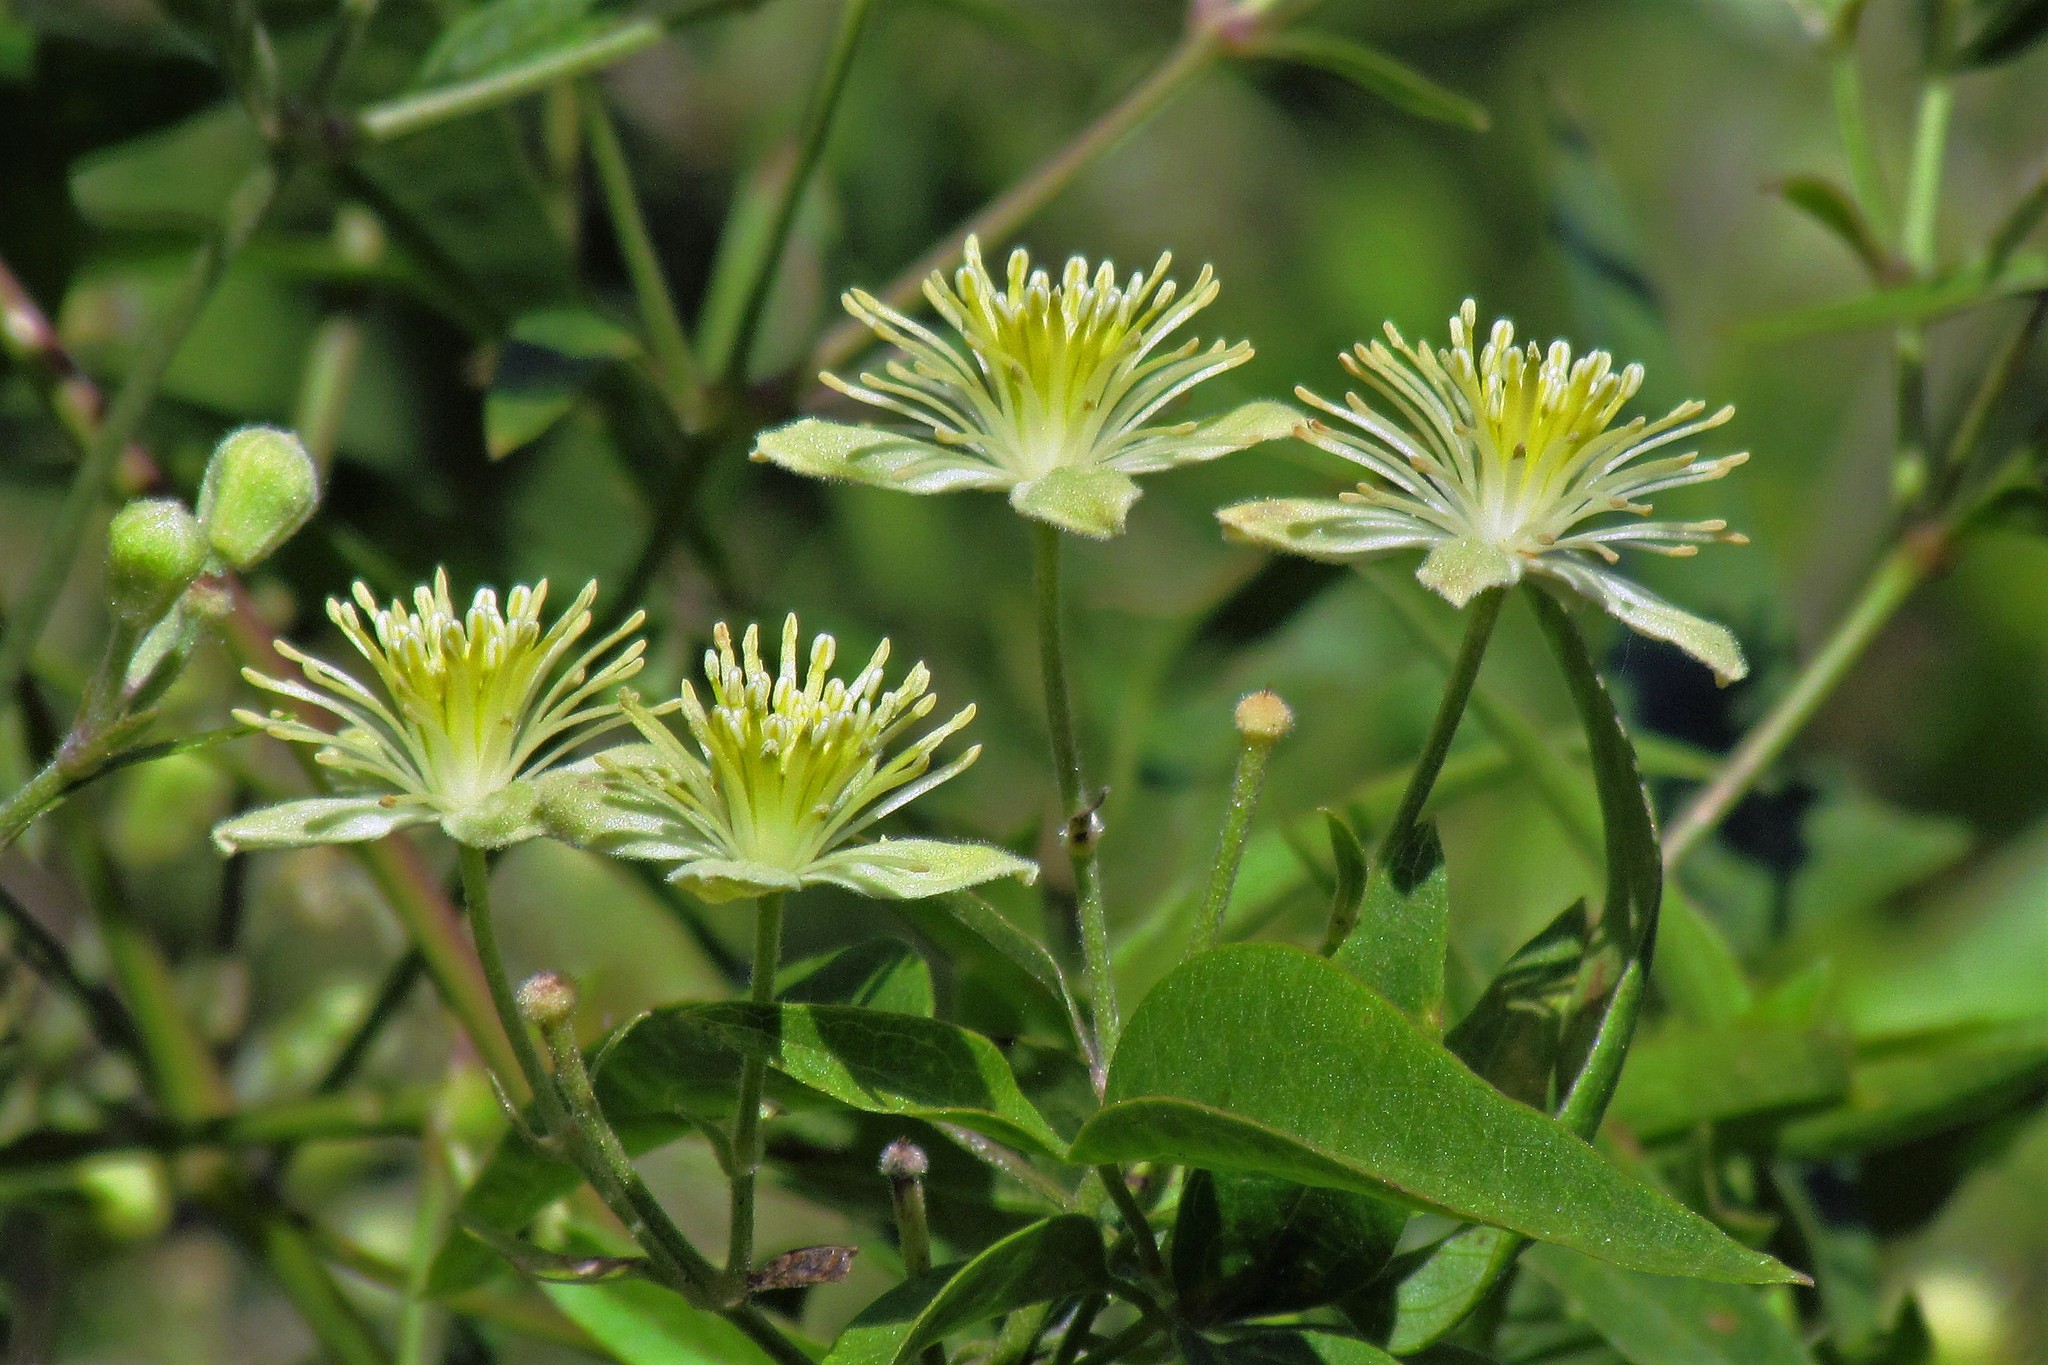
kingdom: Plantae
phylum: Tracheophyta
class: Magnoliopsida
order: Ranunculales
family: Ranunculaceae
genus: Clematis
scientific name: Clematis montevidensis
